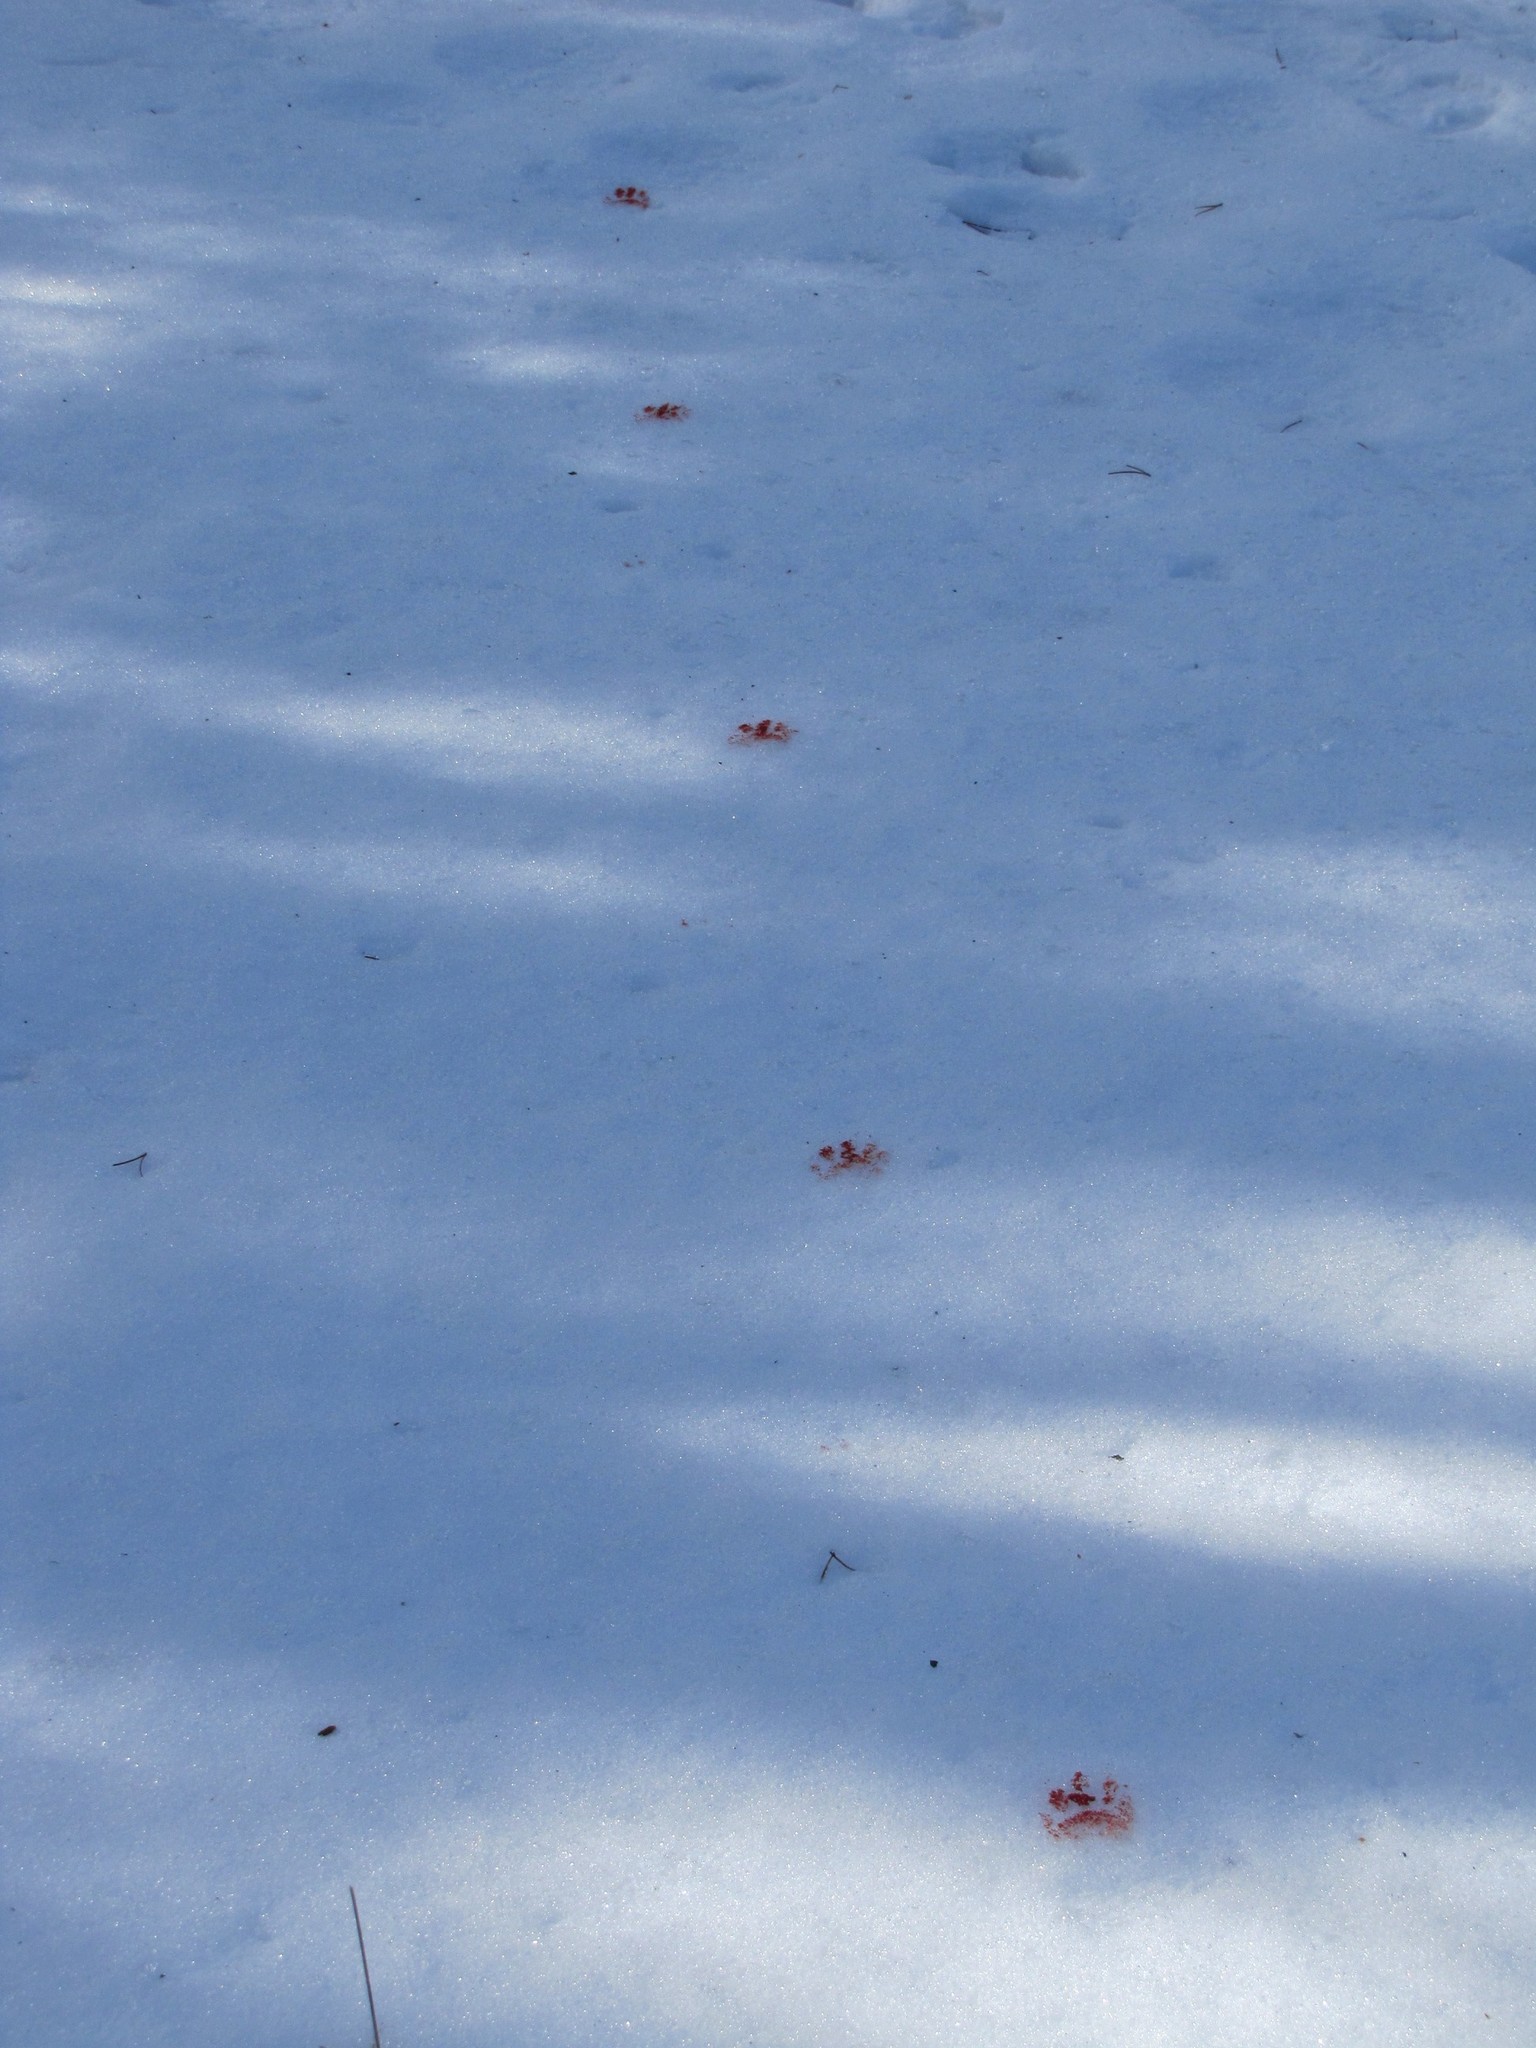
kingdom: Animalia
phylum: Chordata
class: Mammalia
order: Carnivora
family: Procyonidae
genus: Procyon
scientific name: Procyon lotor
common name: Raccoon
